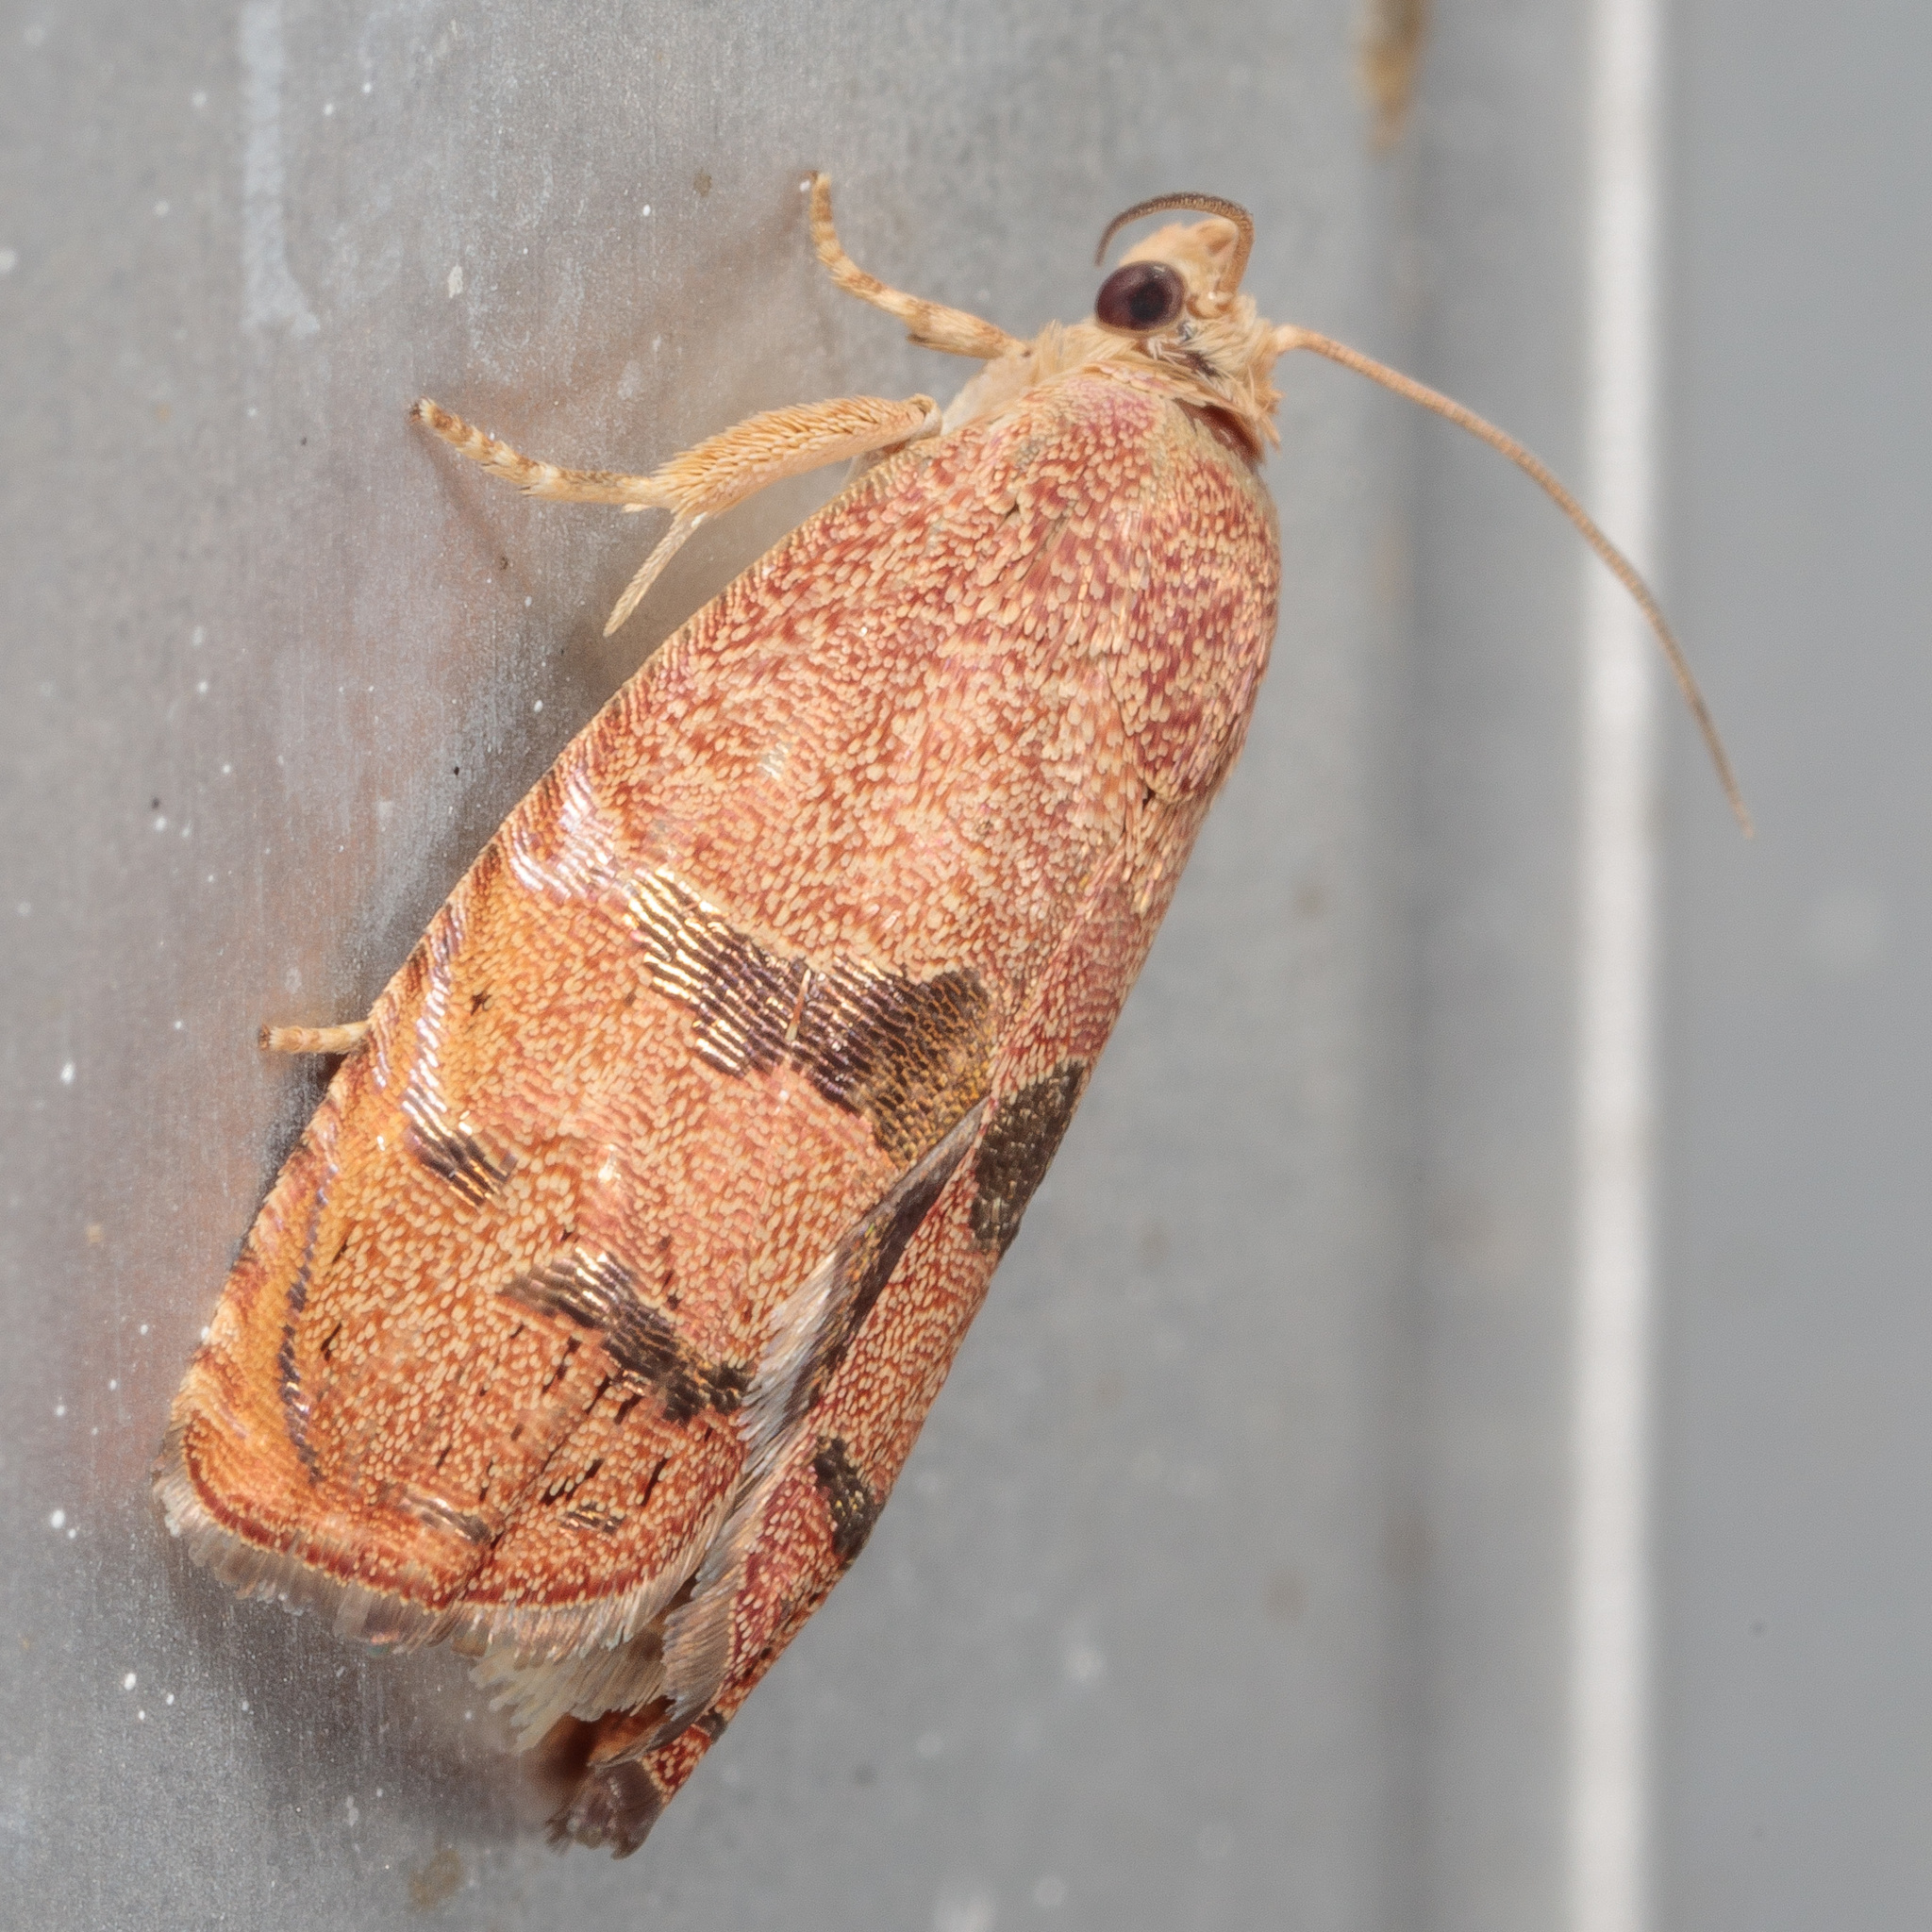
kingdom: Animalia
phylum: Arthropoda
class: Insecta
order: Lepidoptera
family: Tortricidae
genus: Cydia
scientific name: Cydia latiferreana
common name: Filbertworm moth
